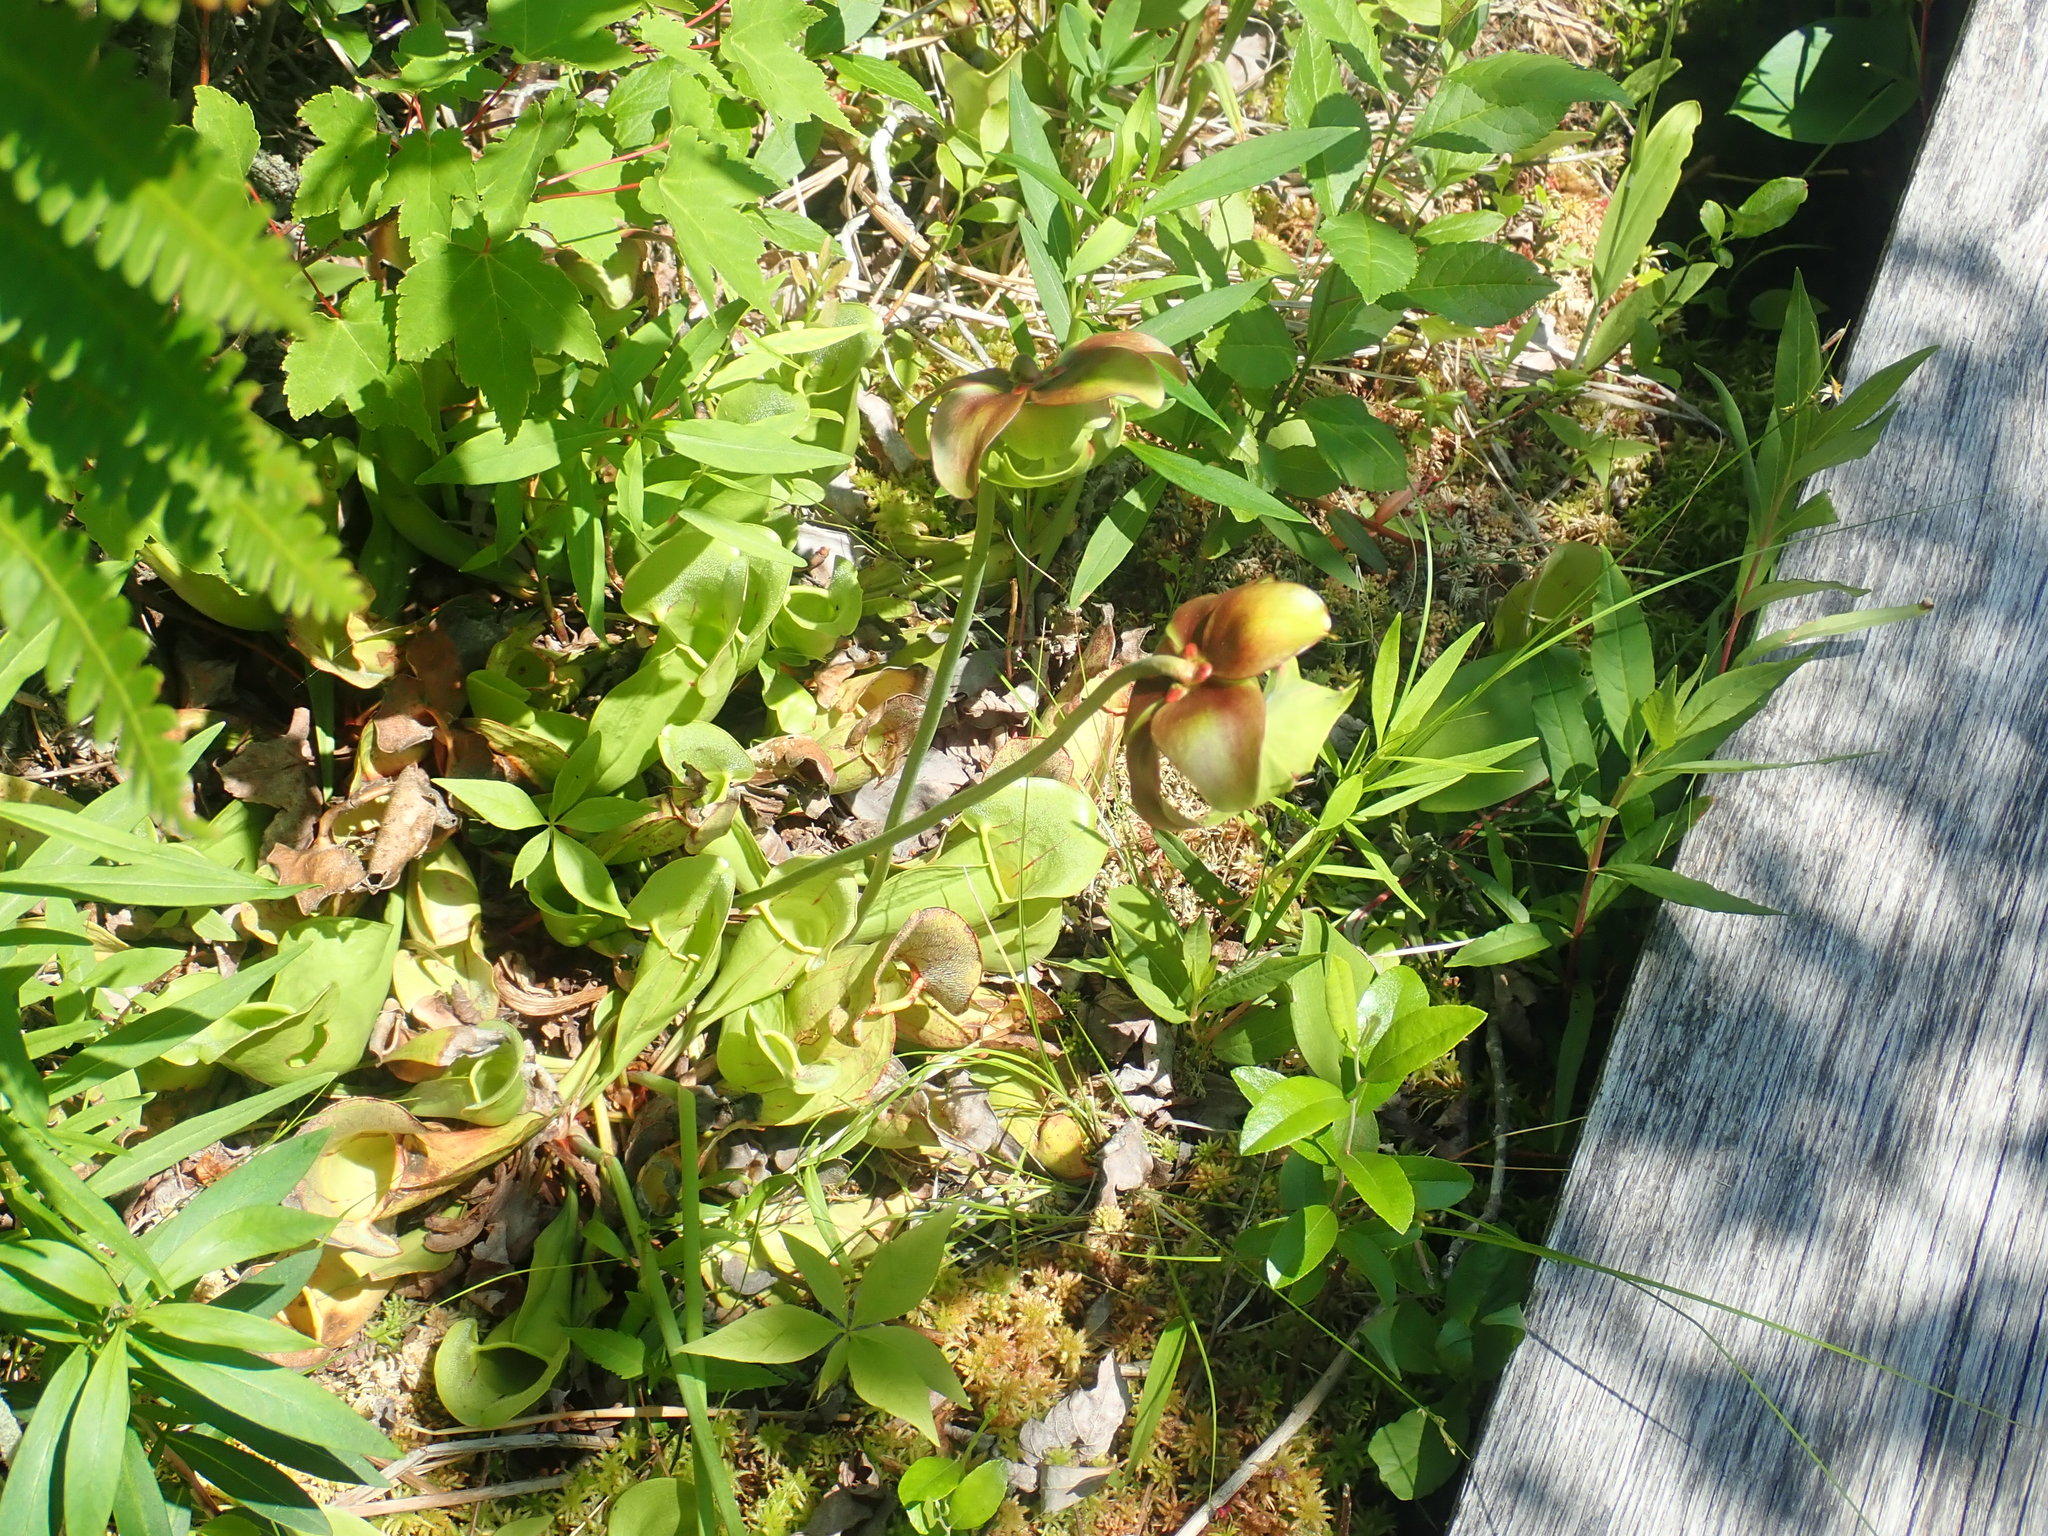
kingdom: Plantae
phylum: Tracheophyta
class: Magnoliopsida
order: Ericales
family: Sarraceniaceae
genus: Sarracenia
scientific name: Sarracenia purpurea
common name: Pitcherplant
